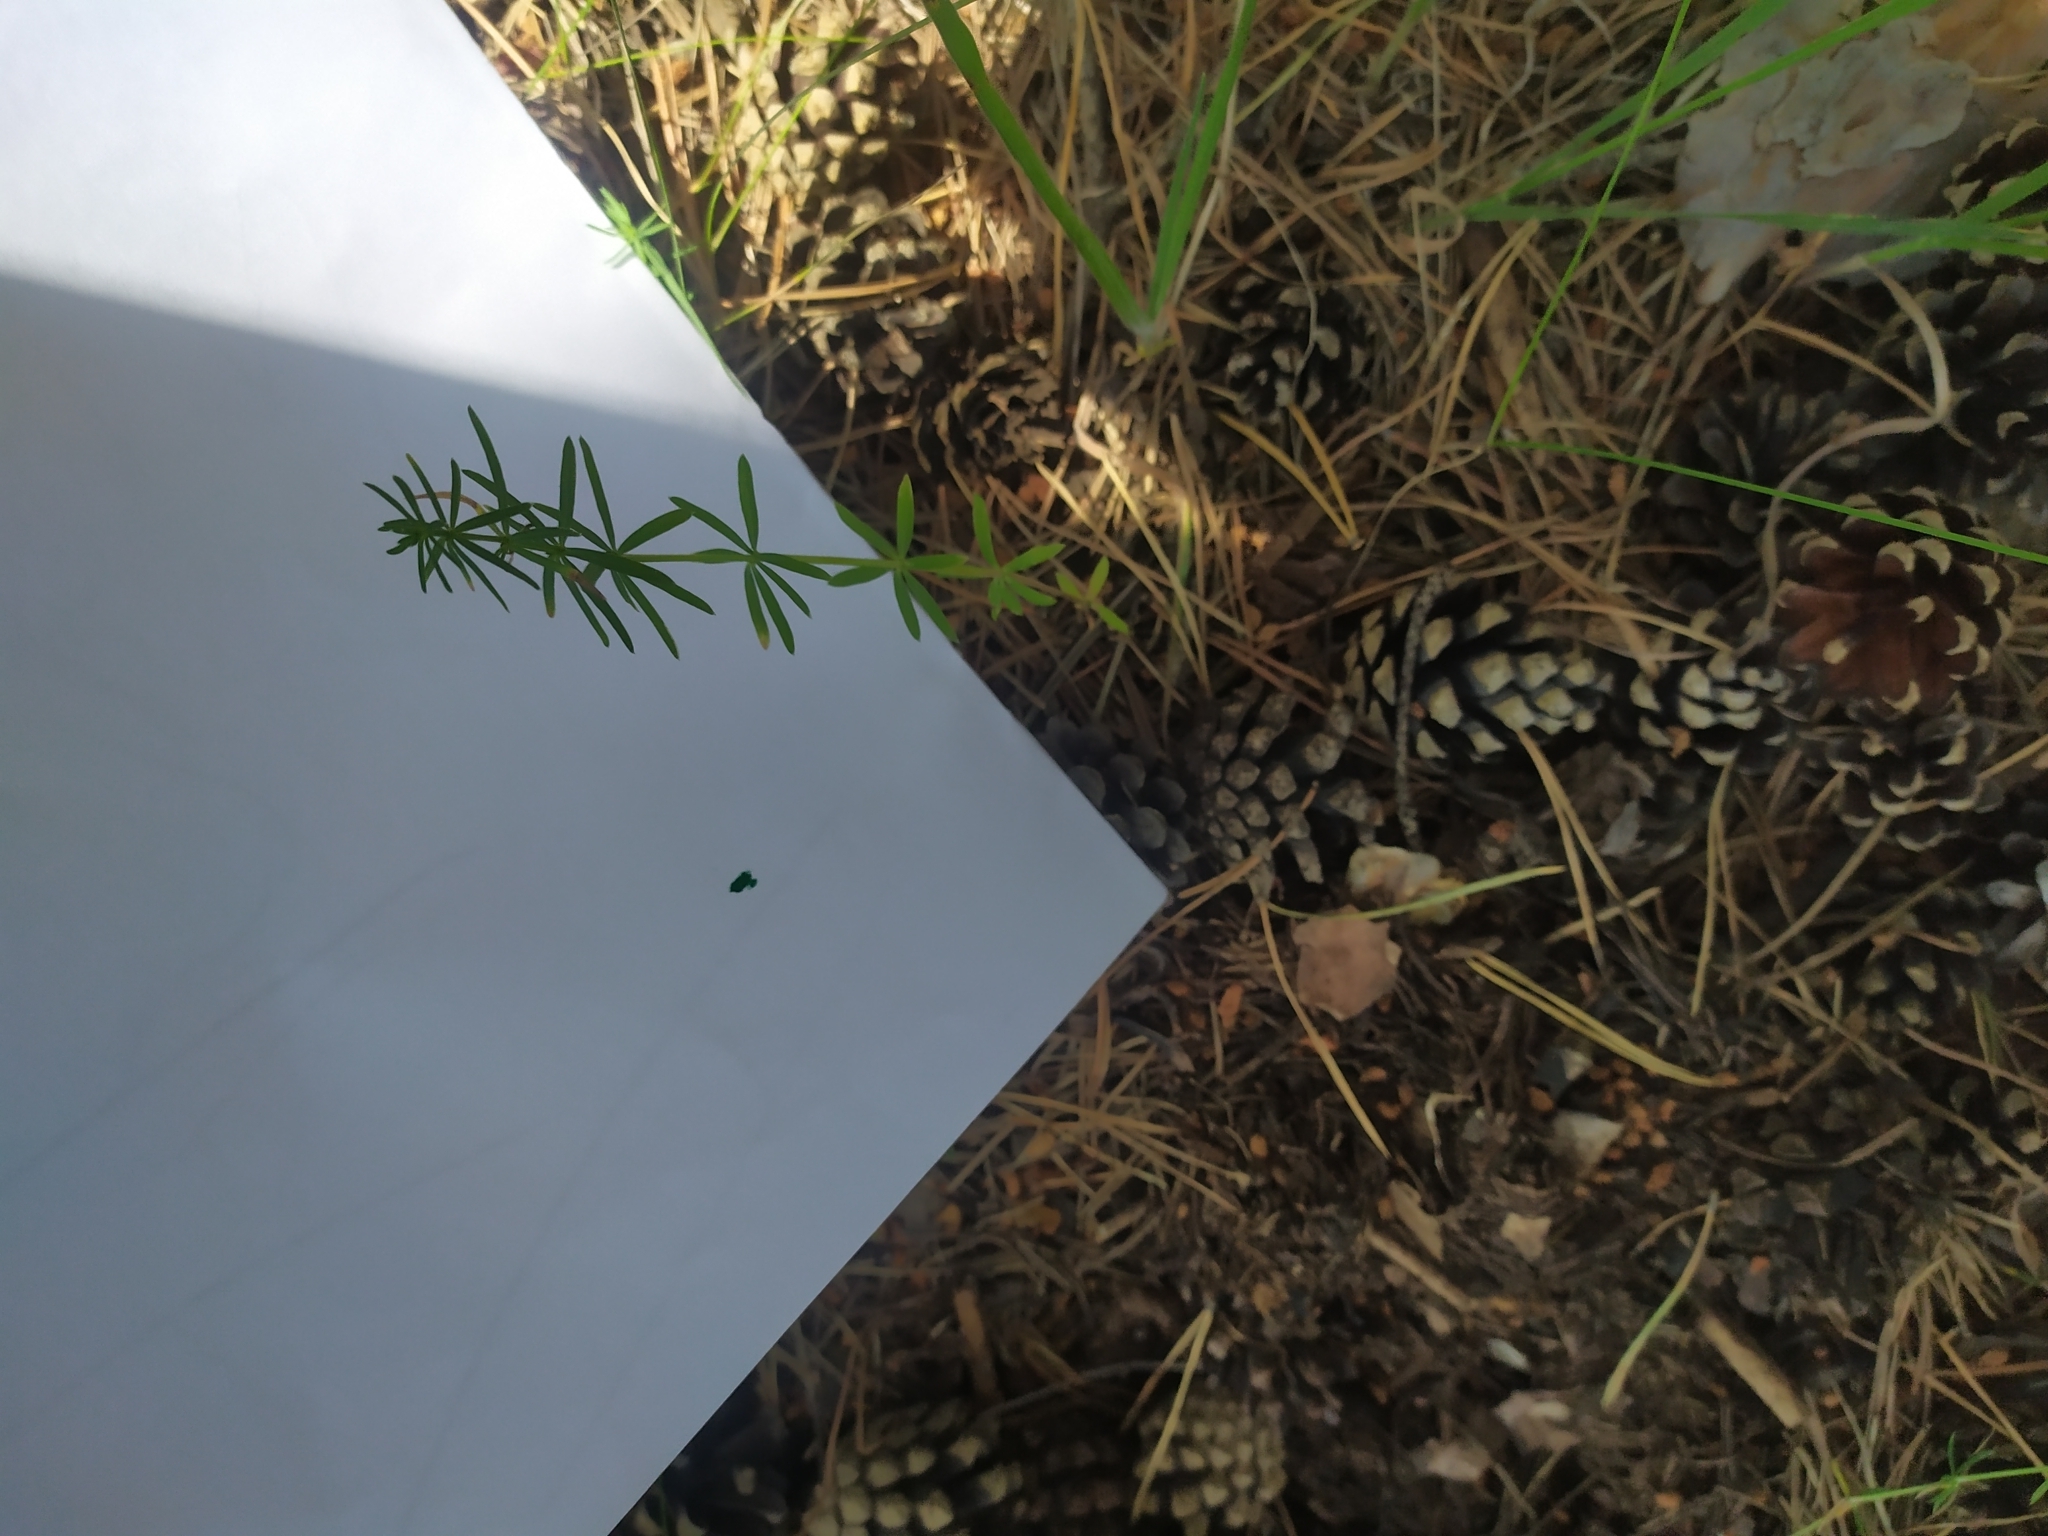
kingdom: Plantae
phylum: Tracheophyta
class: Magnoliopsida
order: Gentianales
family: Rubiaceae
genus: Galium
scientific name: Galium verum
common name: Lady's bedstraw
